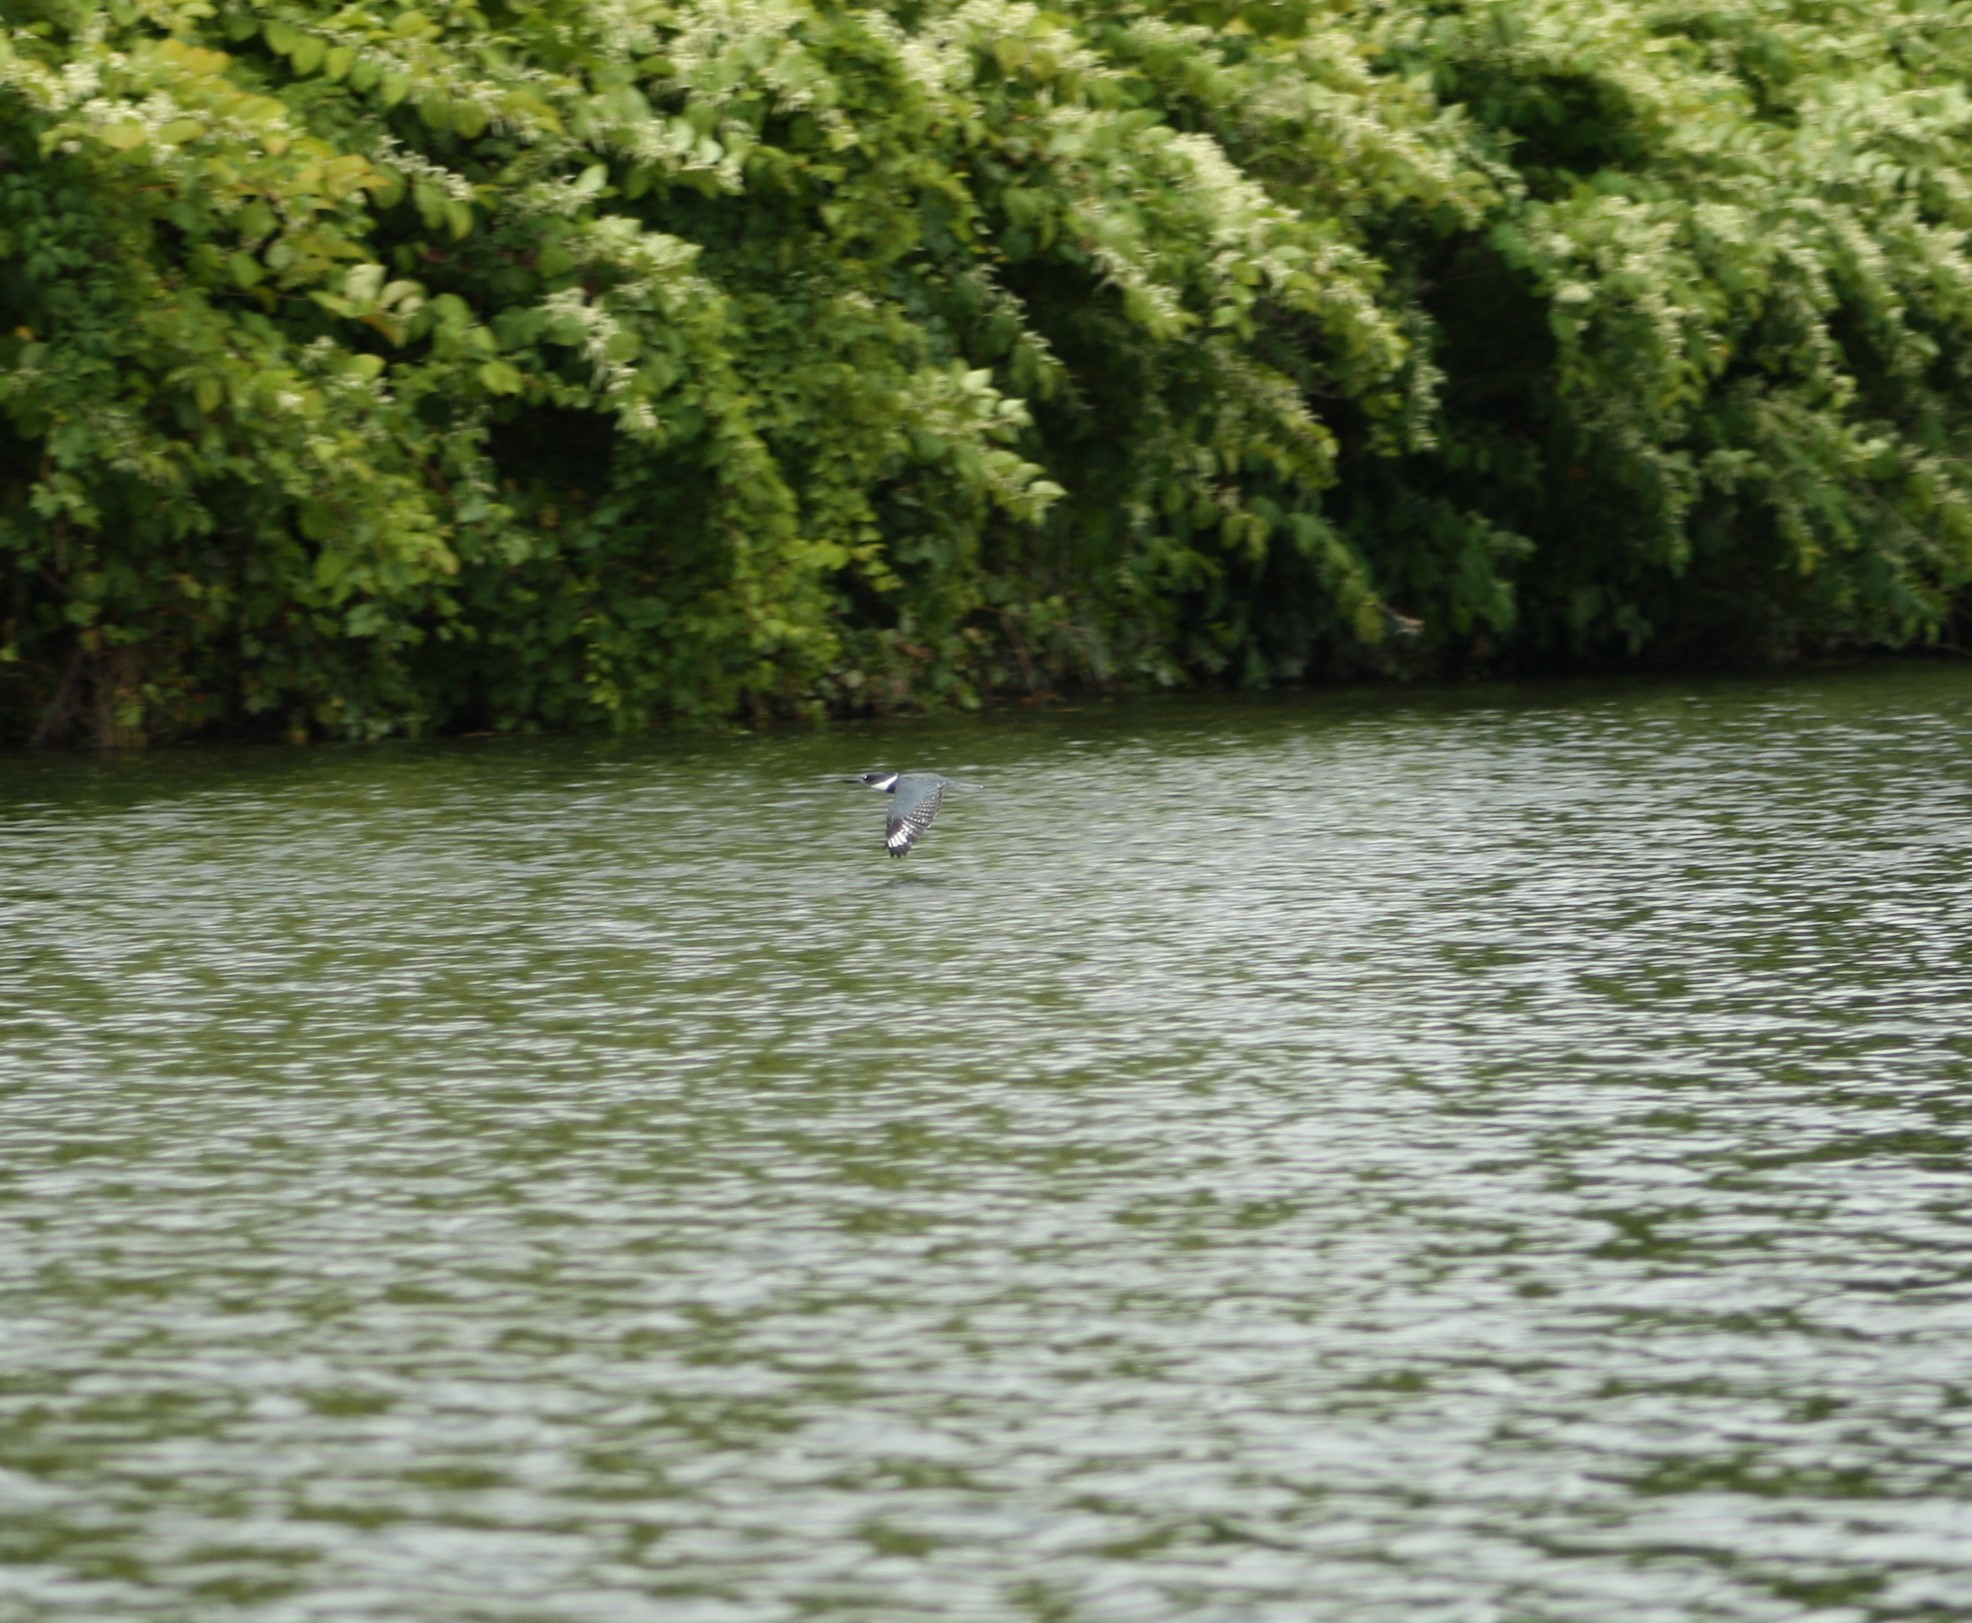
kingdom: Animalia
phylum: Chordata
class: Aves
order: Coraciiformes
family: Alcedinidae
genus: Megaceryle
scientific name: Megaceryle alcyon
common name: Belted kingfisher
